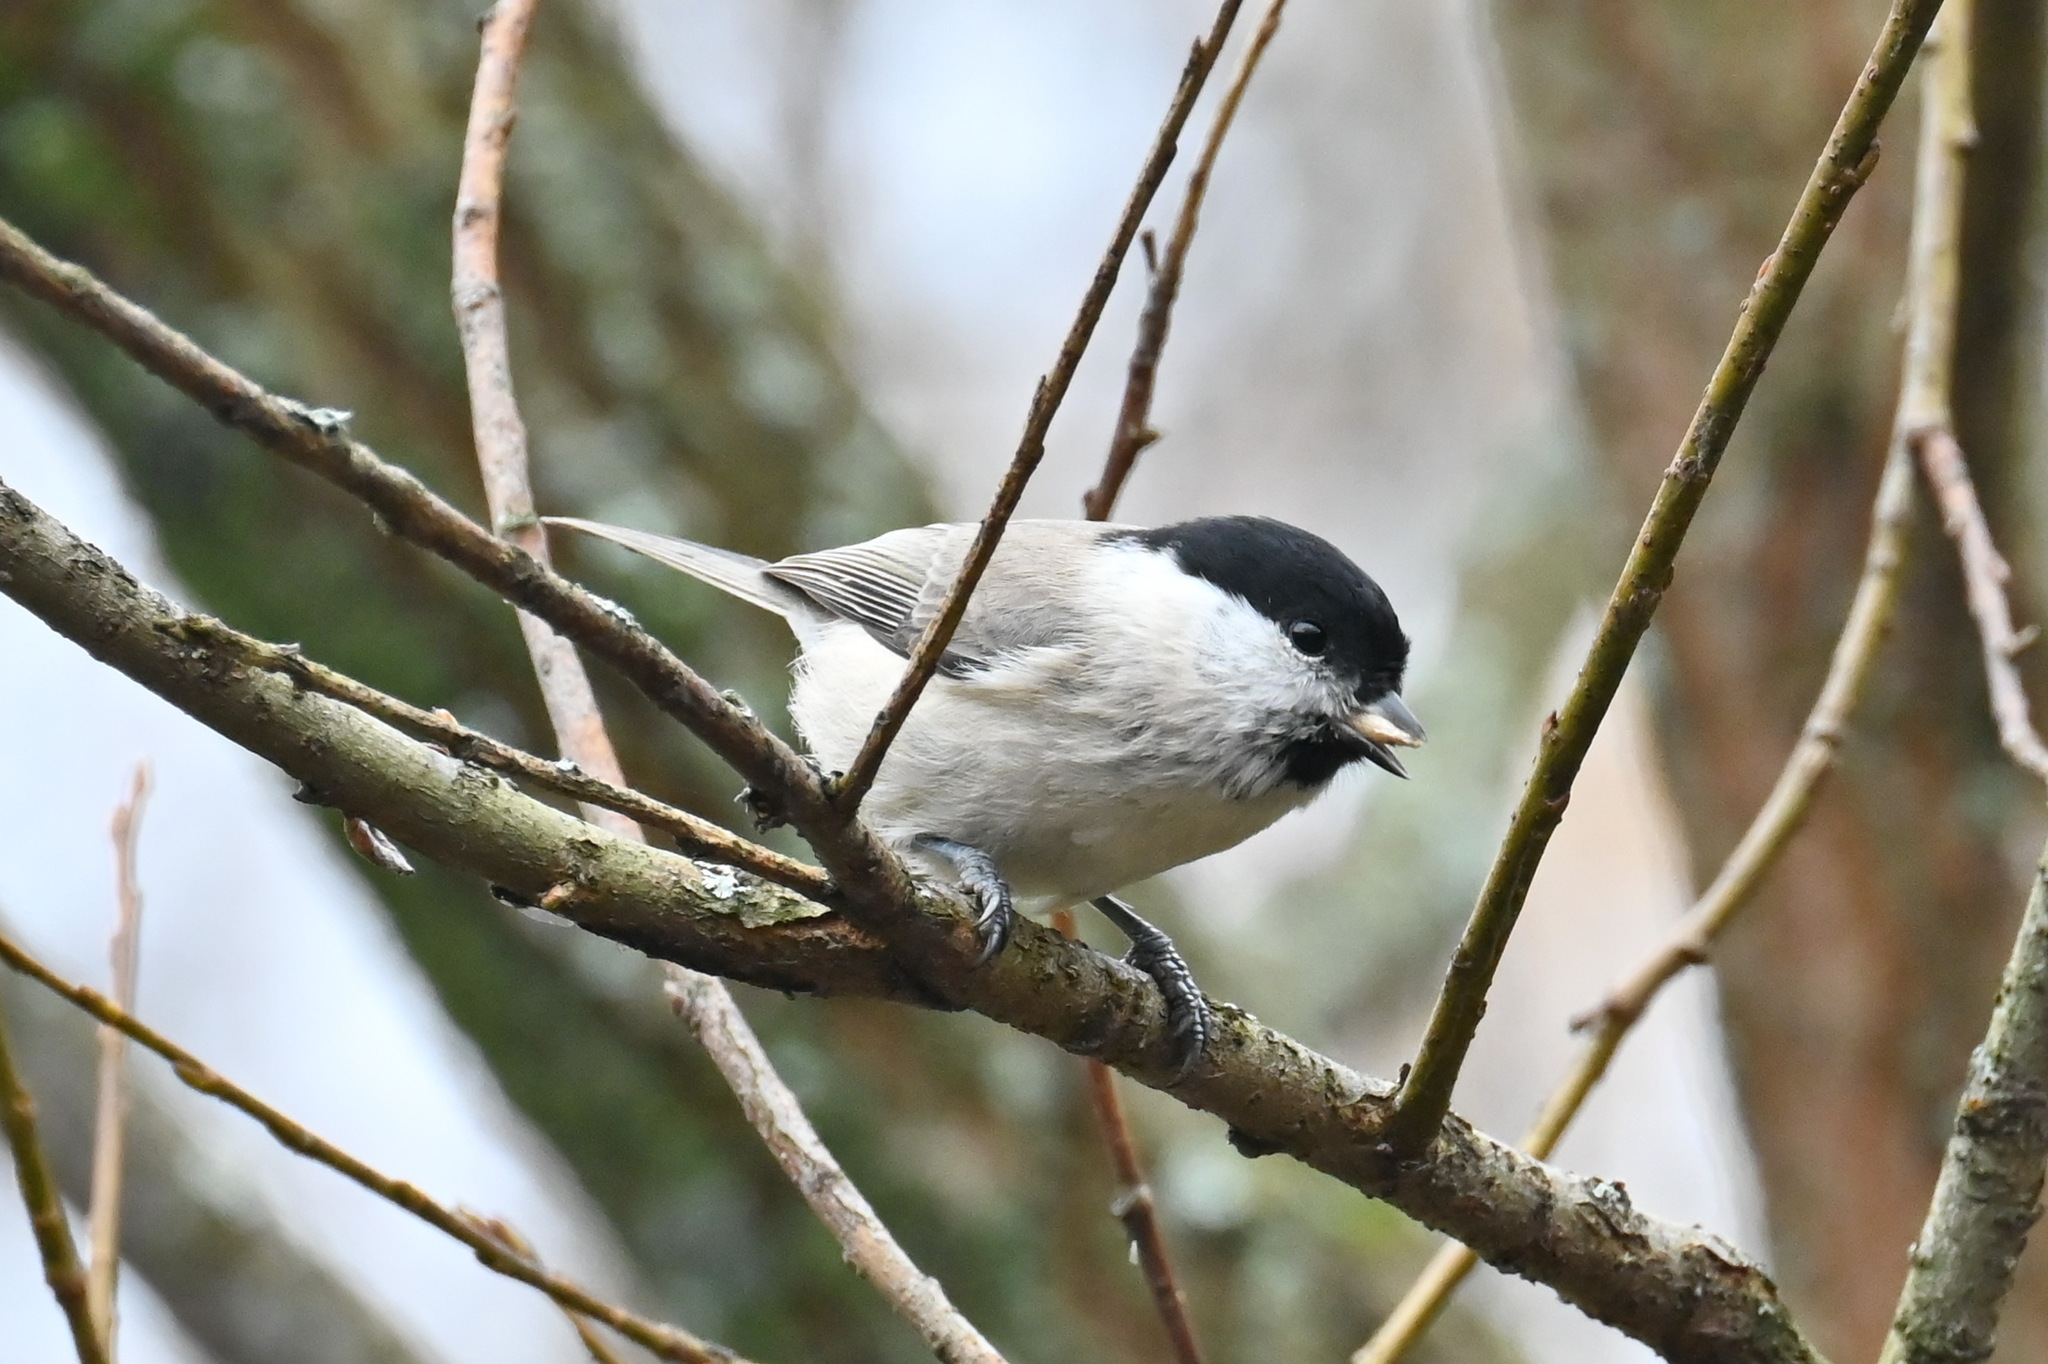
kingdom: Animalia
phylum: Chordata
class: Aves
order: Passeriformes
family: Paridae
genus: Poecile
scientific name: Poecile montanus
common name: Willow tit
